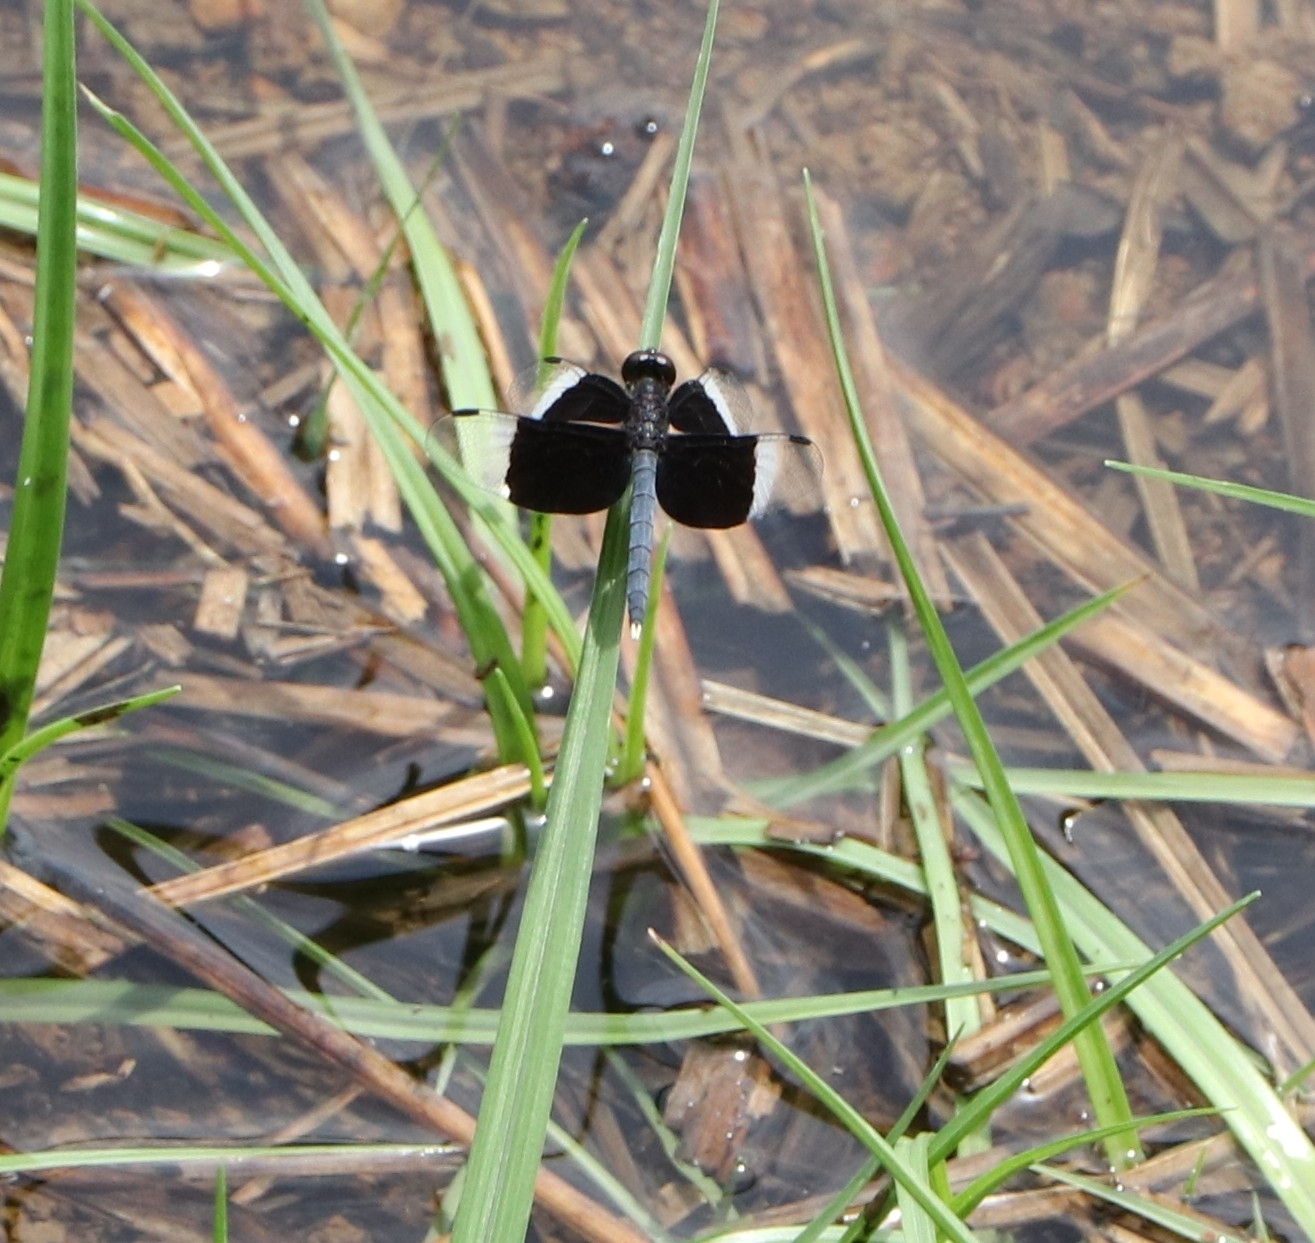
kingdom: Animalia
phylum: Arthropoda
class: Insecta
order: Odonata
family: Libellulidae
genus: Neurothemis
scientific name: Neurothemis tullia
